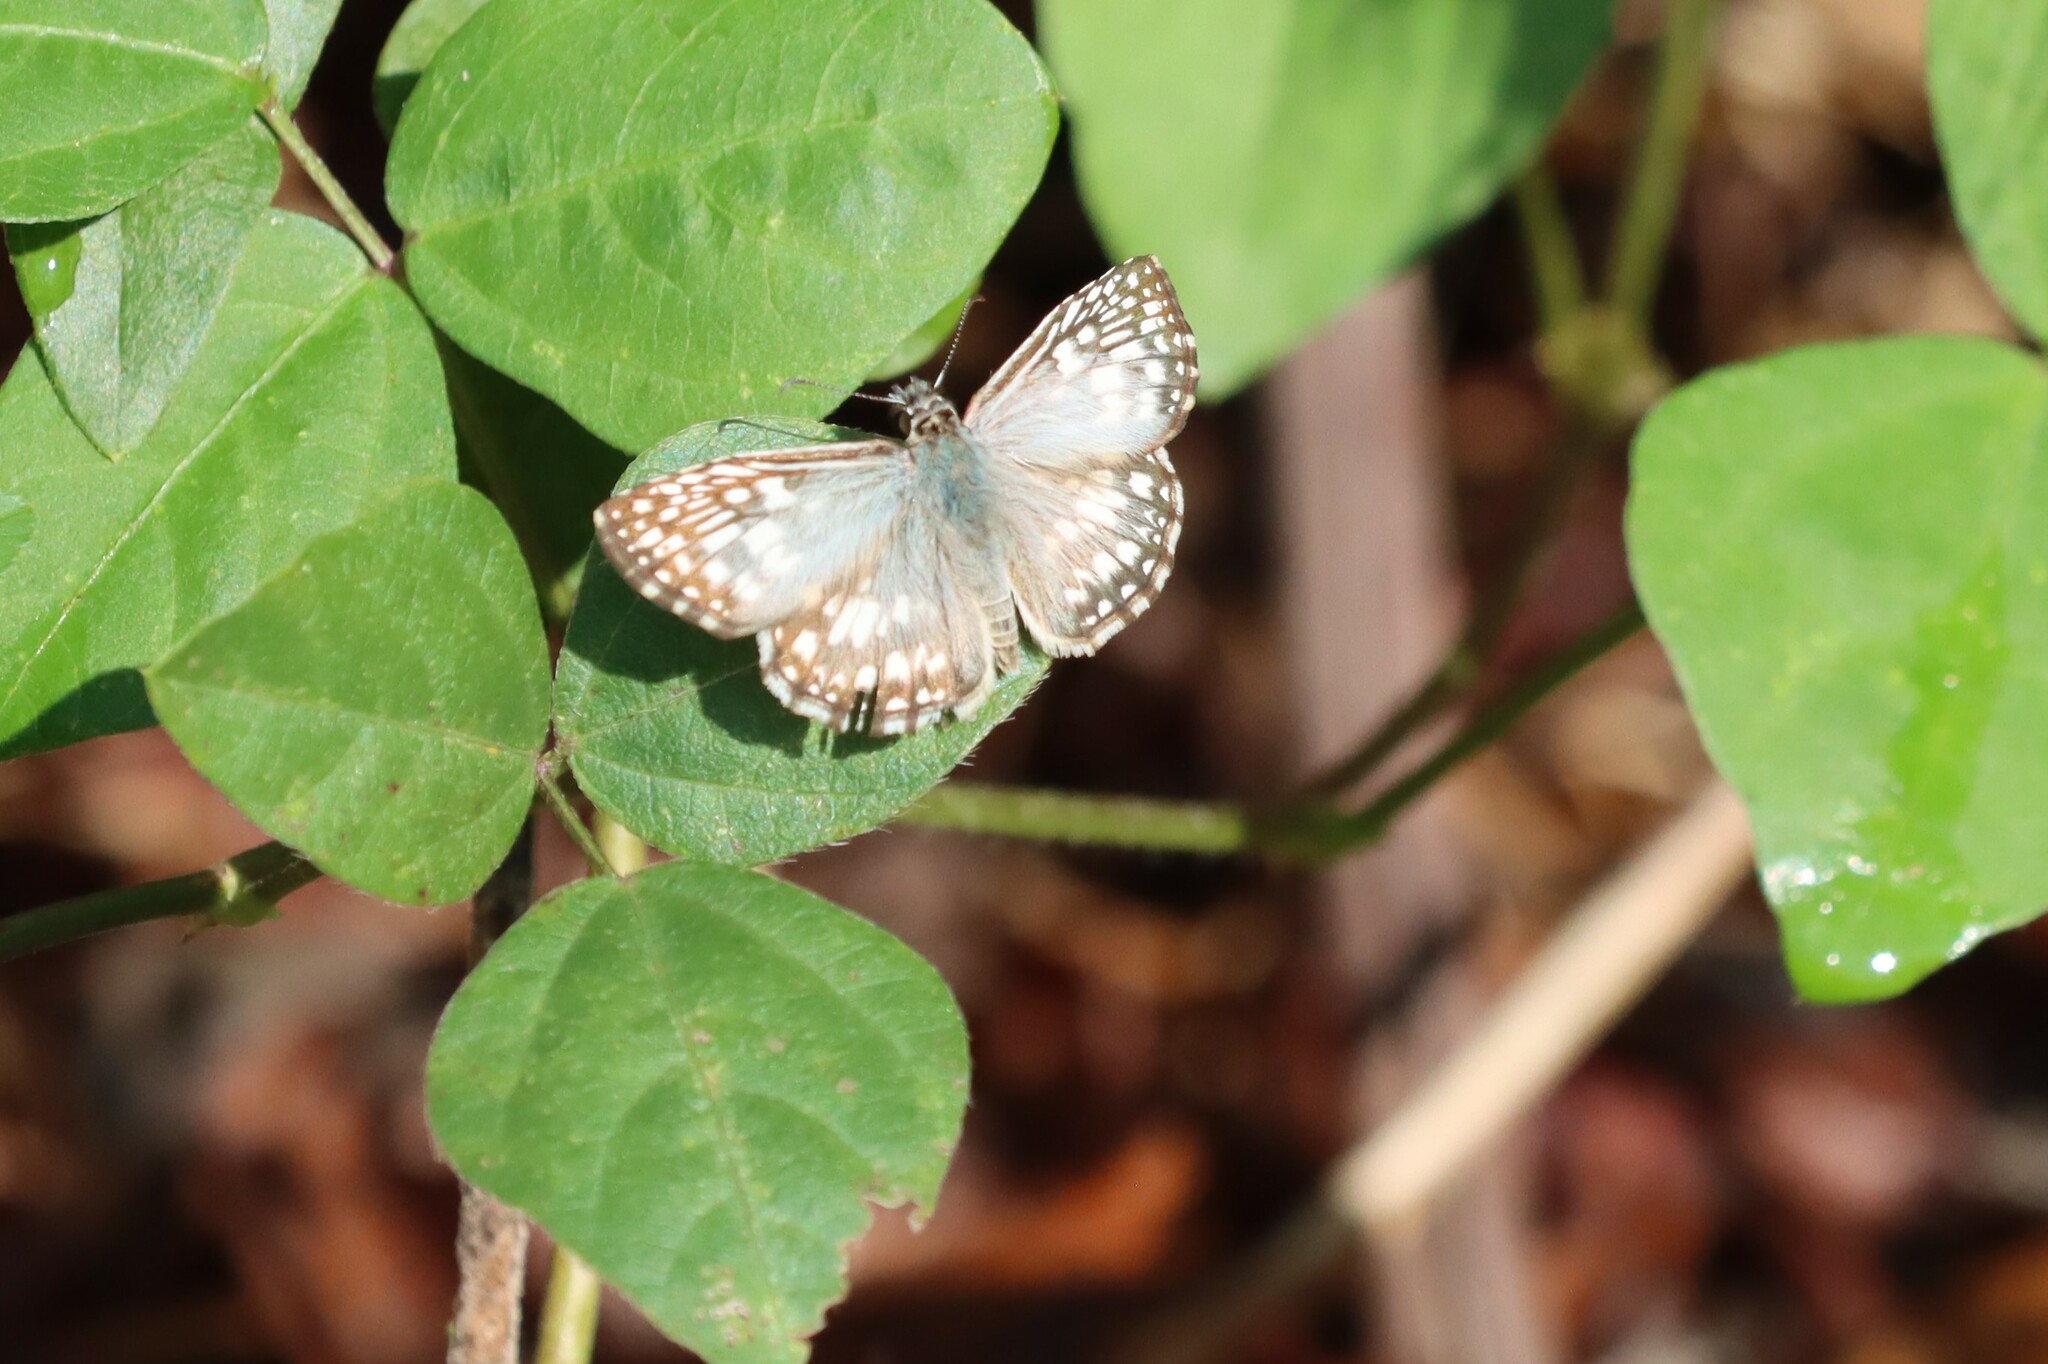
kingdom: Animalia
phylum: Arthropoda
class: Insecta
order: Lepidoptera
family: Hesperiidae
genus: Pyrgus
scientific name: Pyrgus oileus
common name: Tropical checkered-skipper
